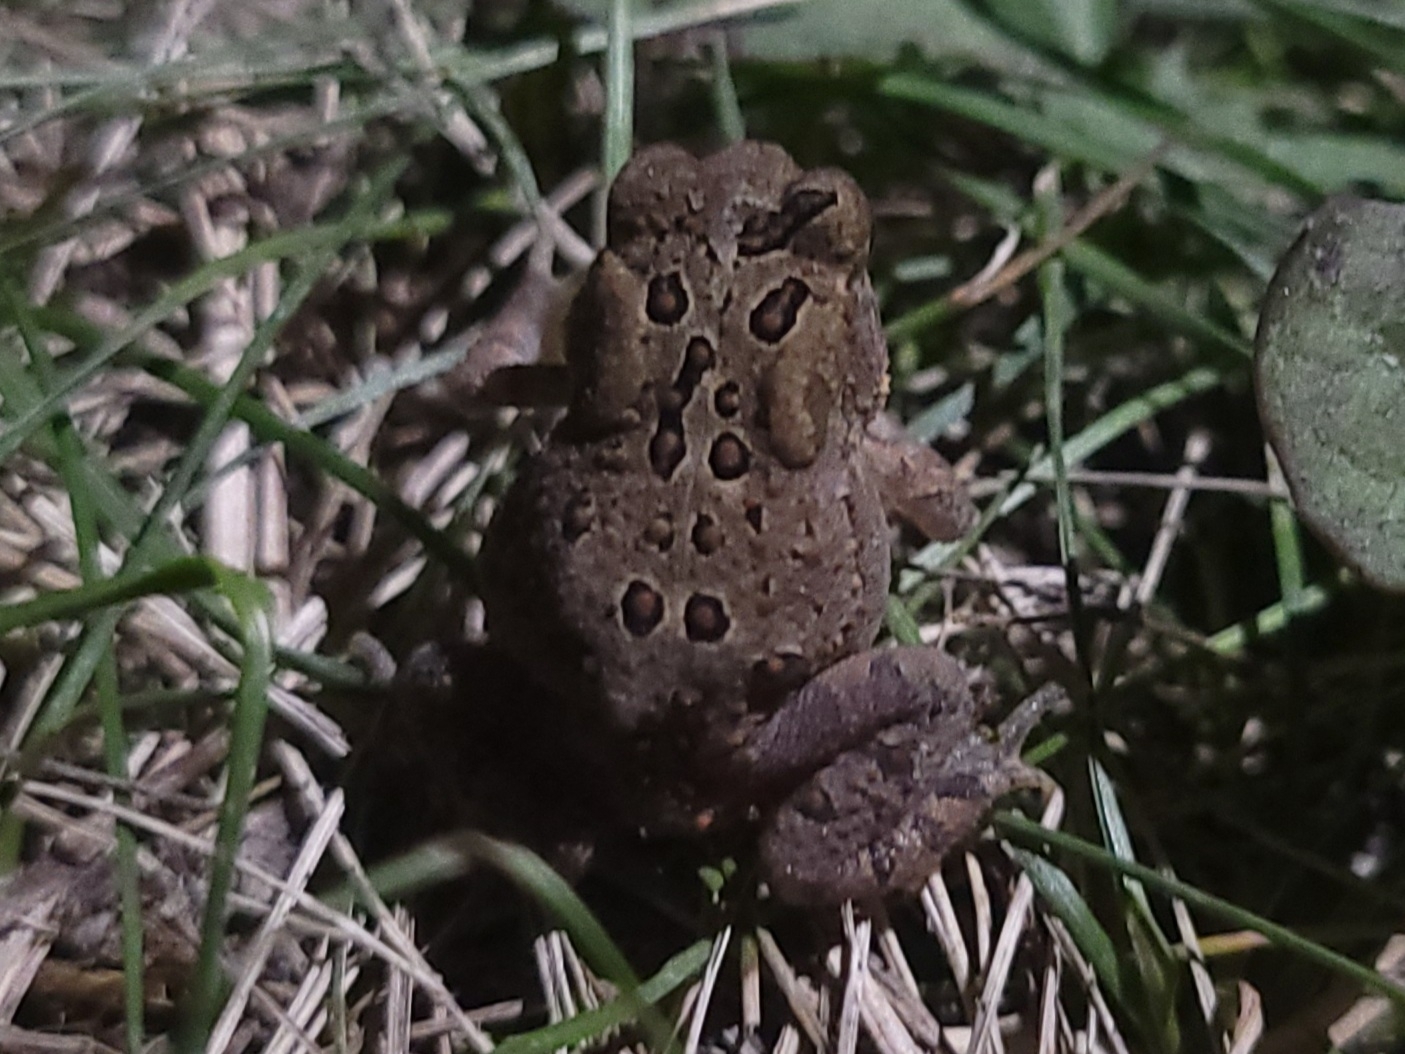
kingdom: Animalia
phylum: Chordata
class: Amphibia
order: Anura
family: Bufonidae
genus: Anaxyrus
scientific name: Anaxyrus americanus
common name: American toad
